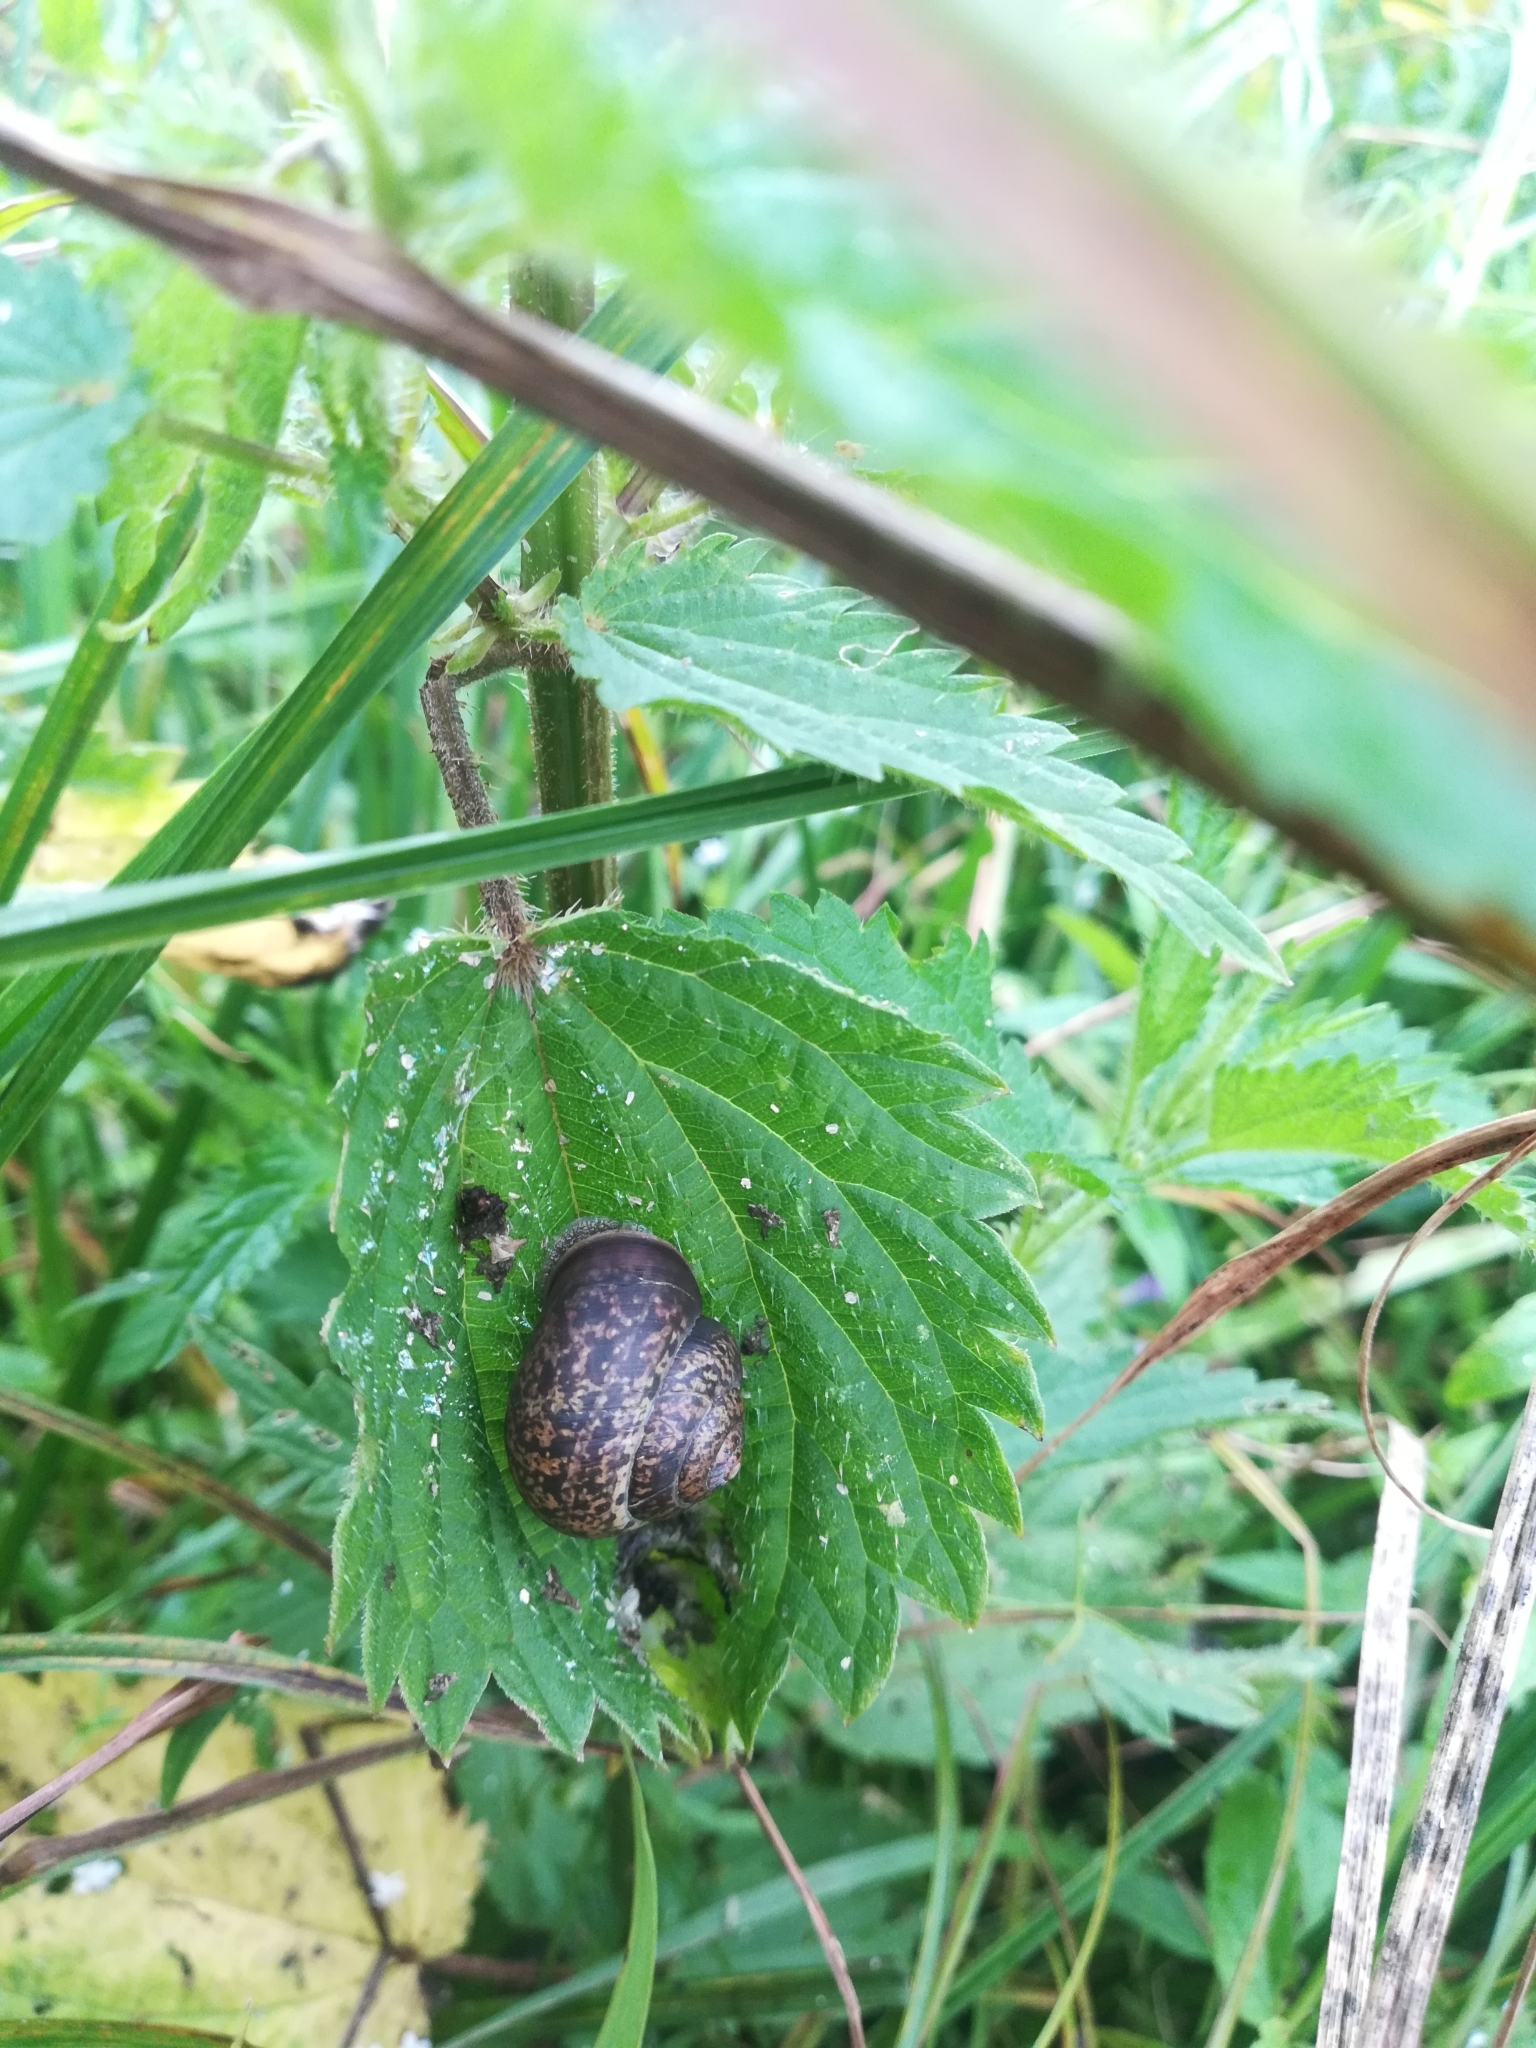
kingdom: Animalia
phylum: Mollusca
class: Gastropoda
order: Stylommatophora
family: Camaenidae
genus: Fruticicola
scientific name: Fruticicola fruticum
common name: Bush snail
